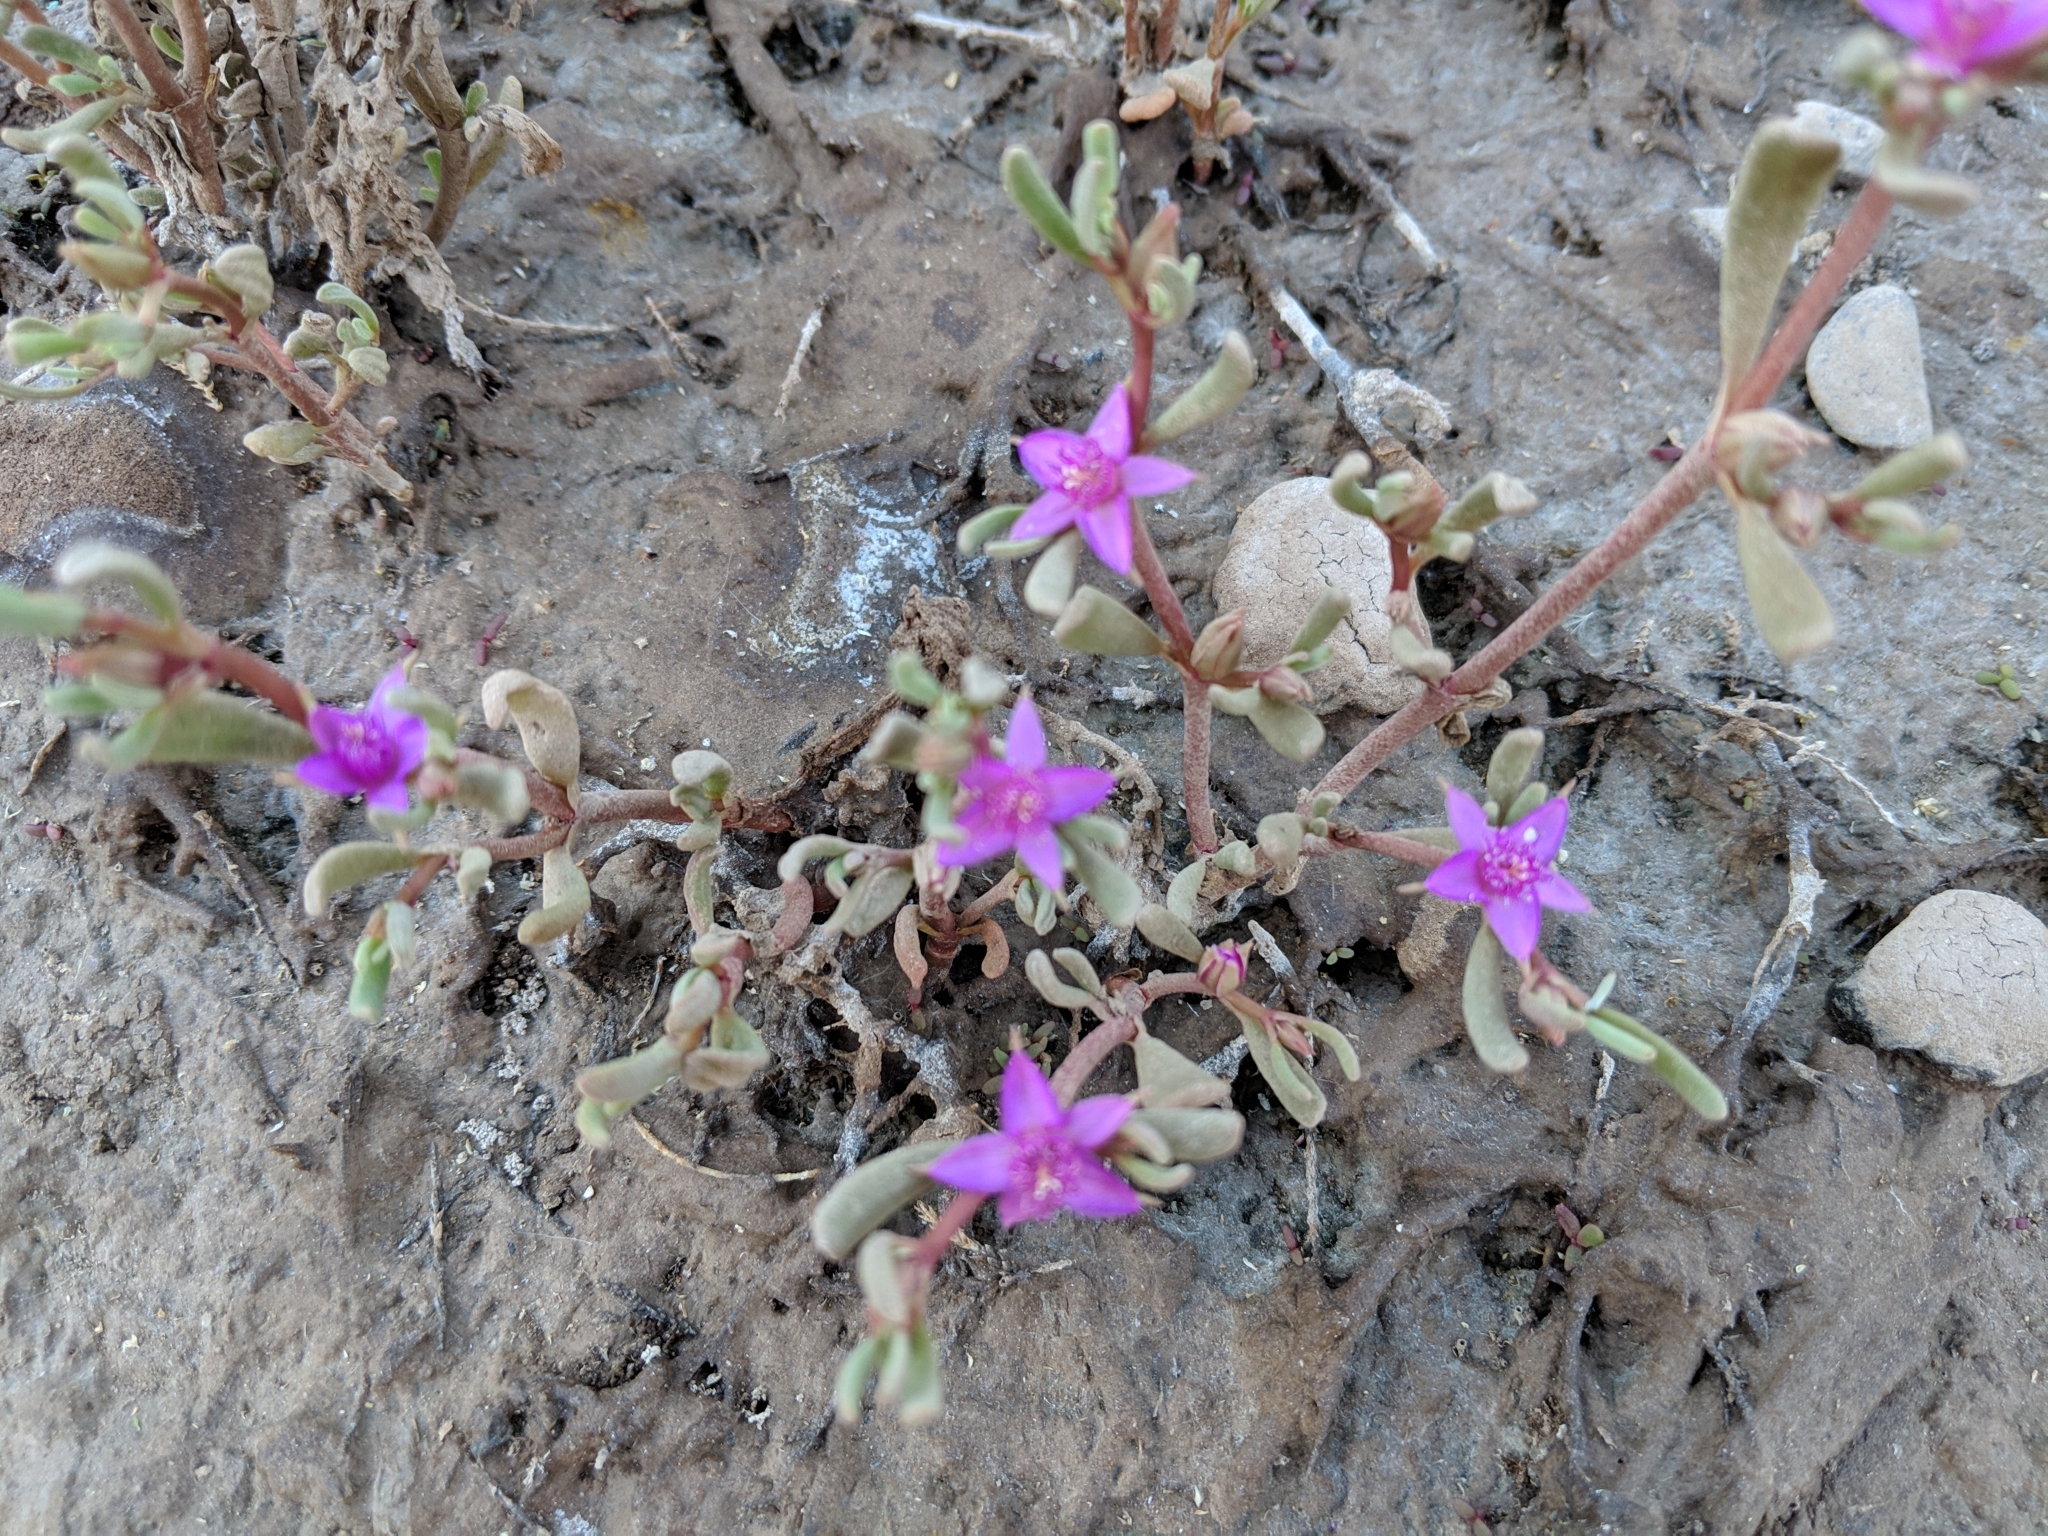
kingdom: Plantae
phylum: Tracheophyta
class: Magnoliopsida
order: Caryophyllales
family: Aizoaceae
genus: Sesuvium
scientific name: Sesuvium revolutifolium
